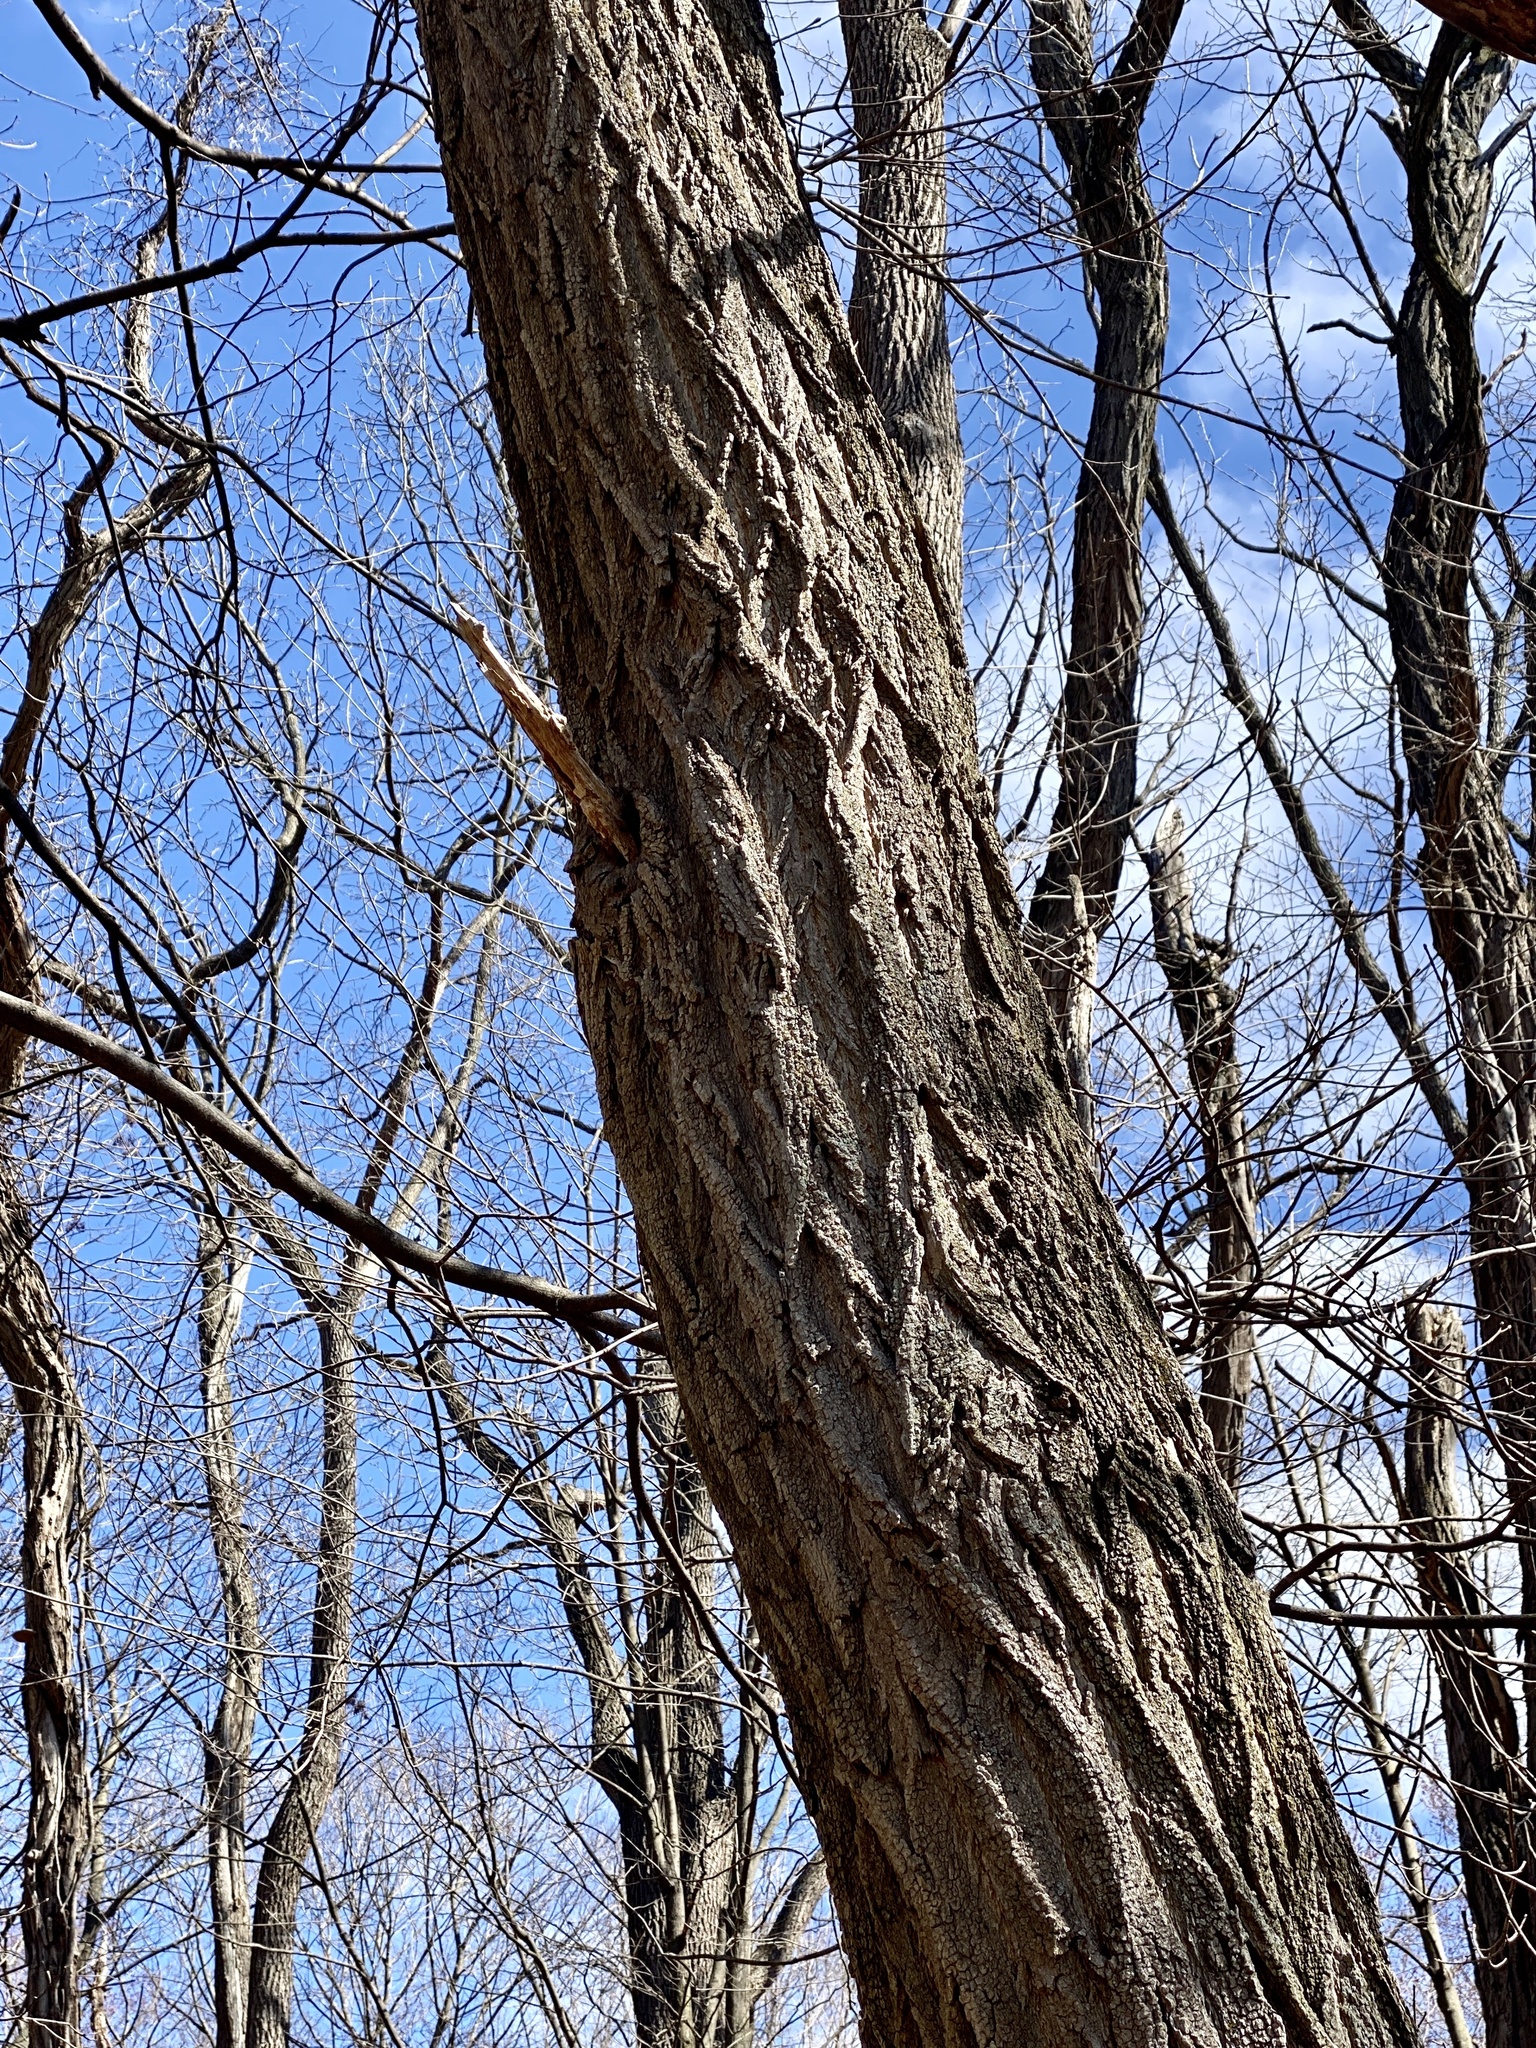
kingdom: Plantae
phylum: Tracheophyta
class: Magnoliopsida
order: Fabales
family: Fabaceae
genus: Robinia
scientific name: Robinia pseudoacacia
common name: Black locust
